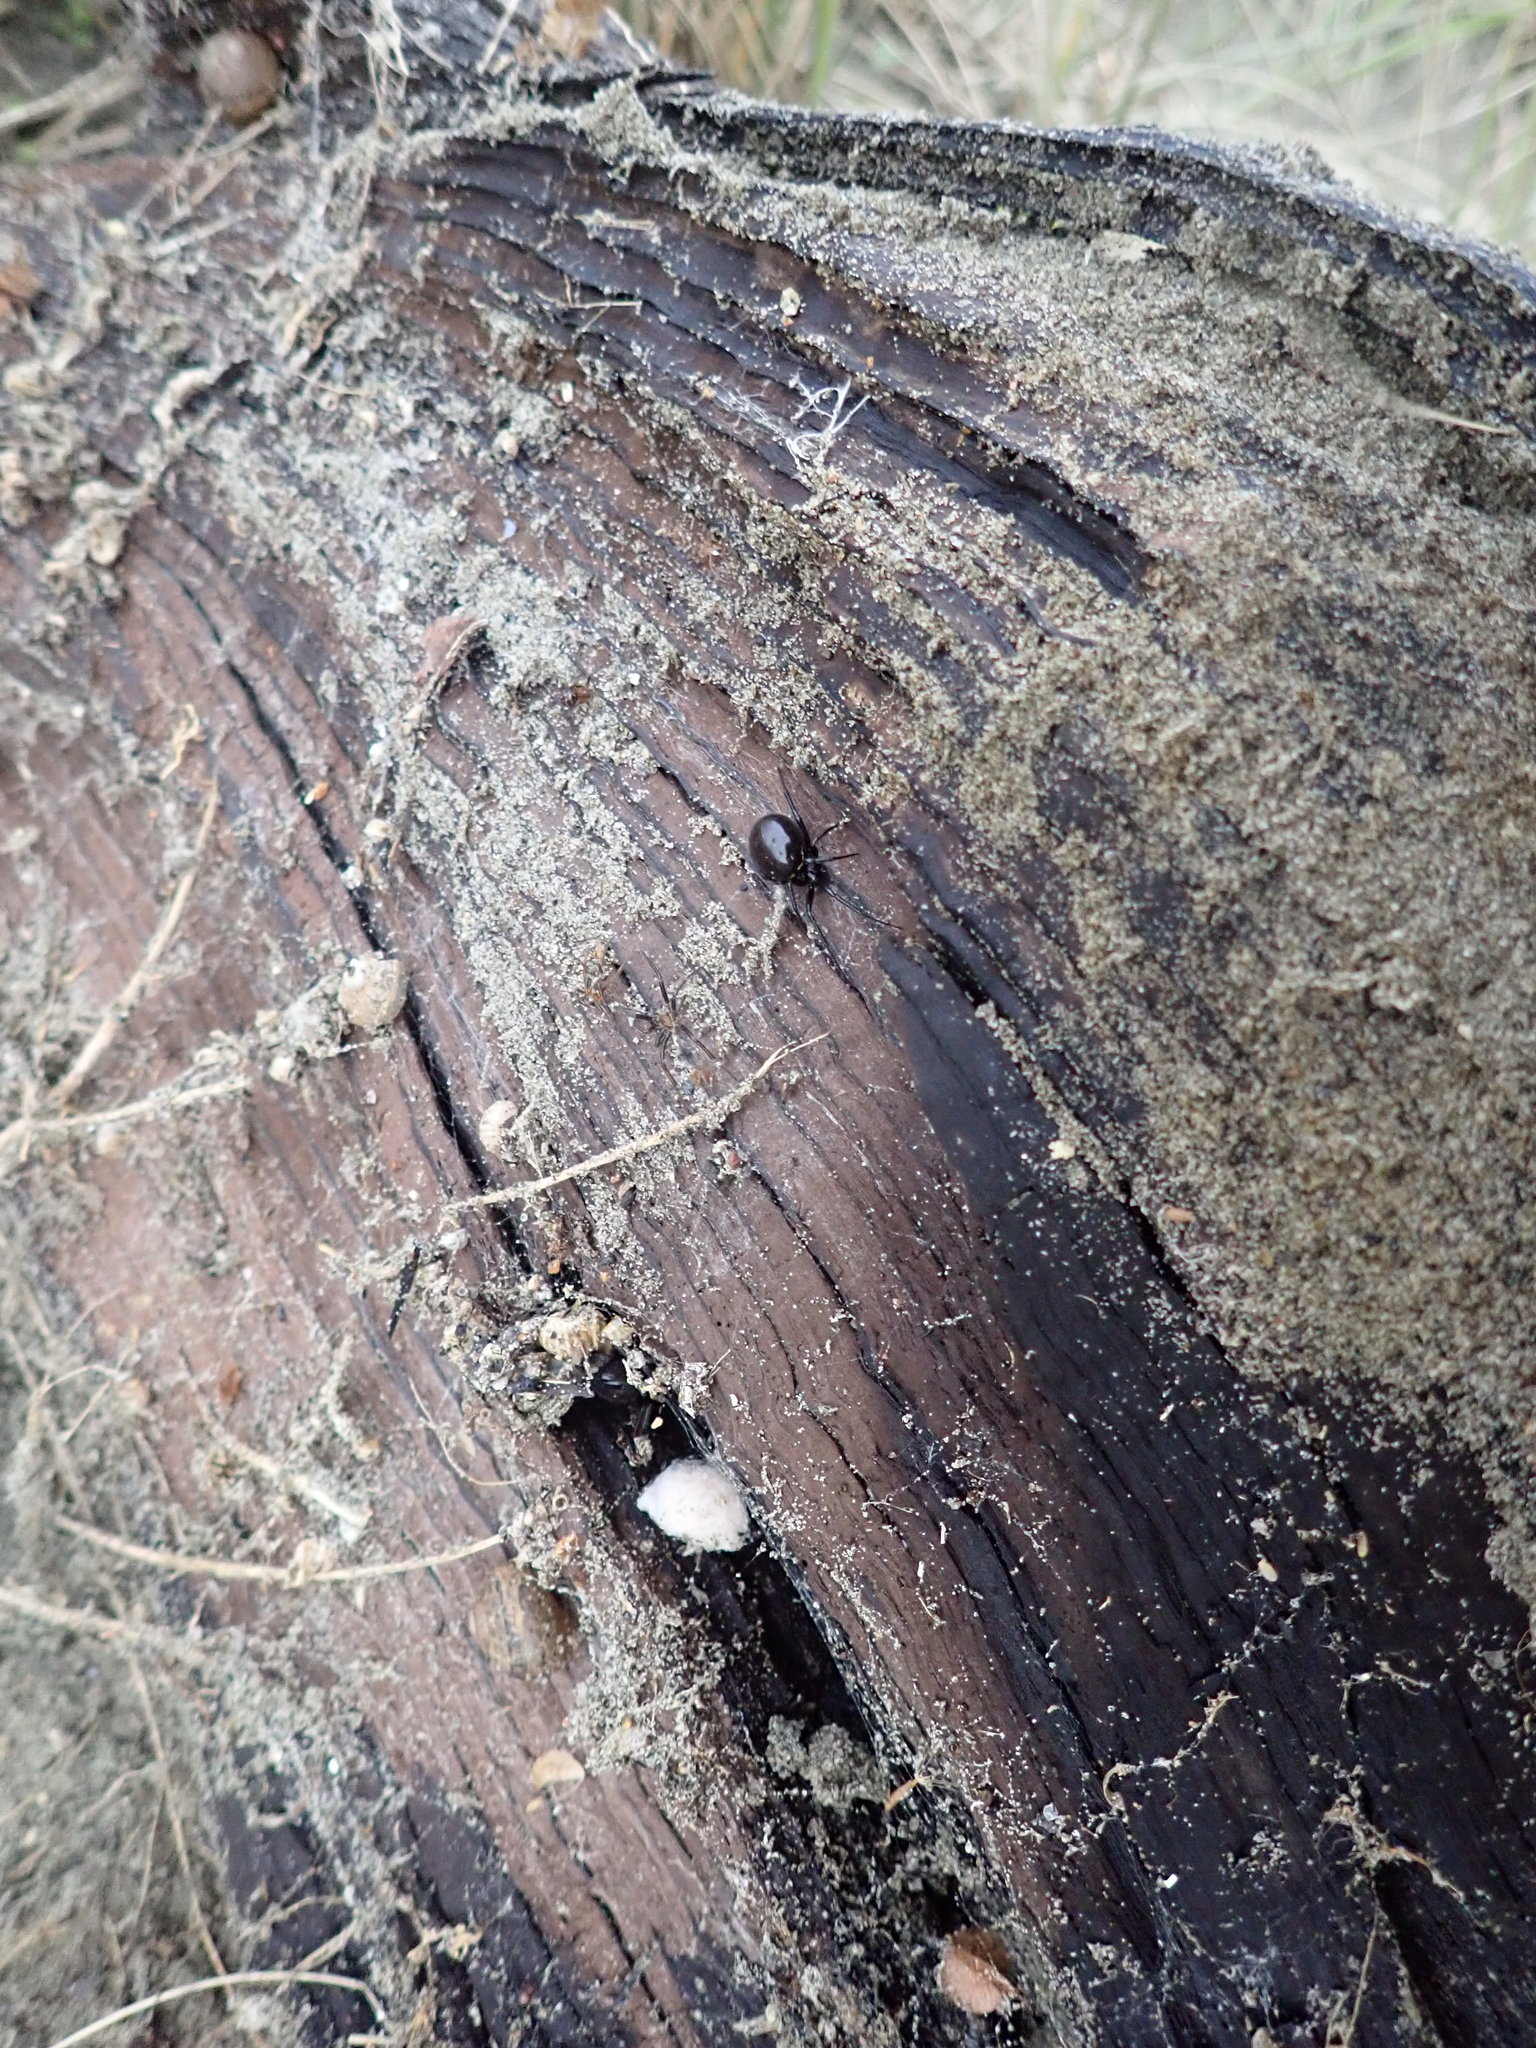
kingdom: Animalia
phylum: Arthropoda
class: Arachnida
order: Araneae
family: Theridiidae
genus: Steatoda
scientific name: Steatoda capensis
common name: Cobweb weaver
